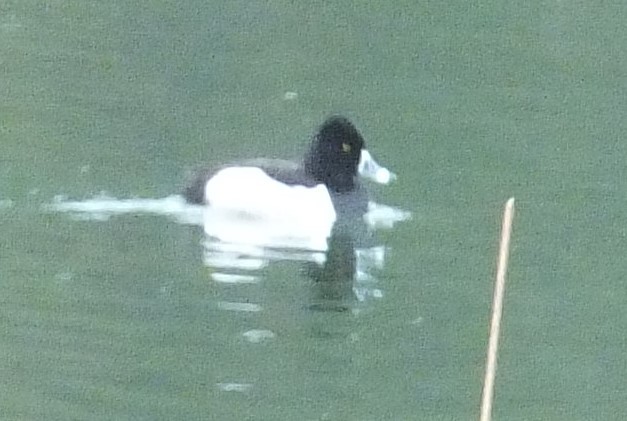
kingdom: Animalia
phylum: Chordata
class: Aves
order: Anseriformes
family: Anatidae
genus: Aythya
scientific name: Aythya collaris
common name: Ring-necked duck
